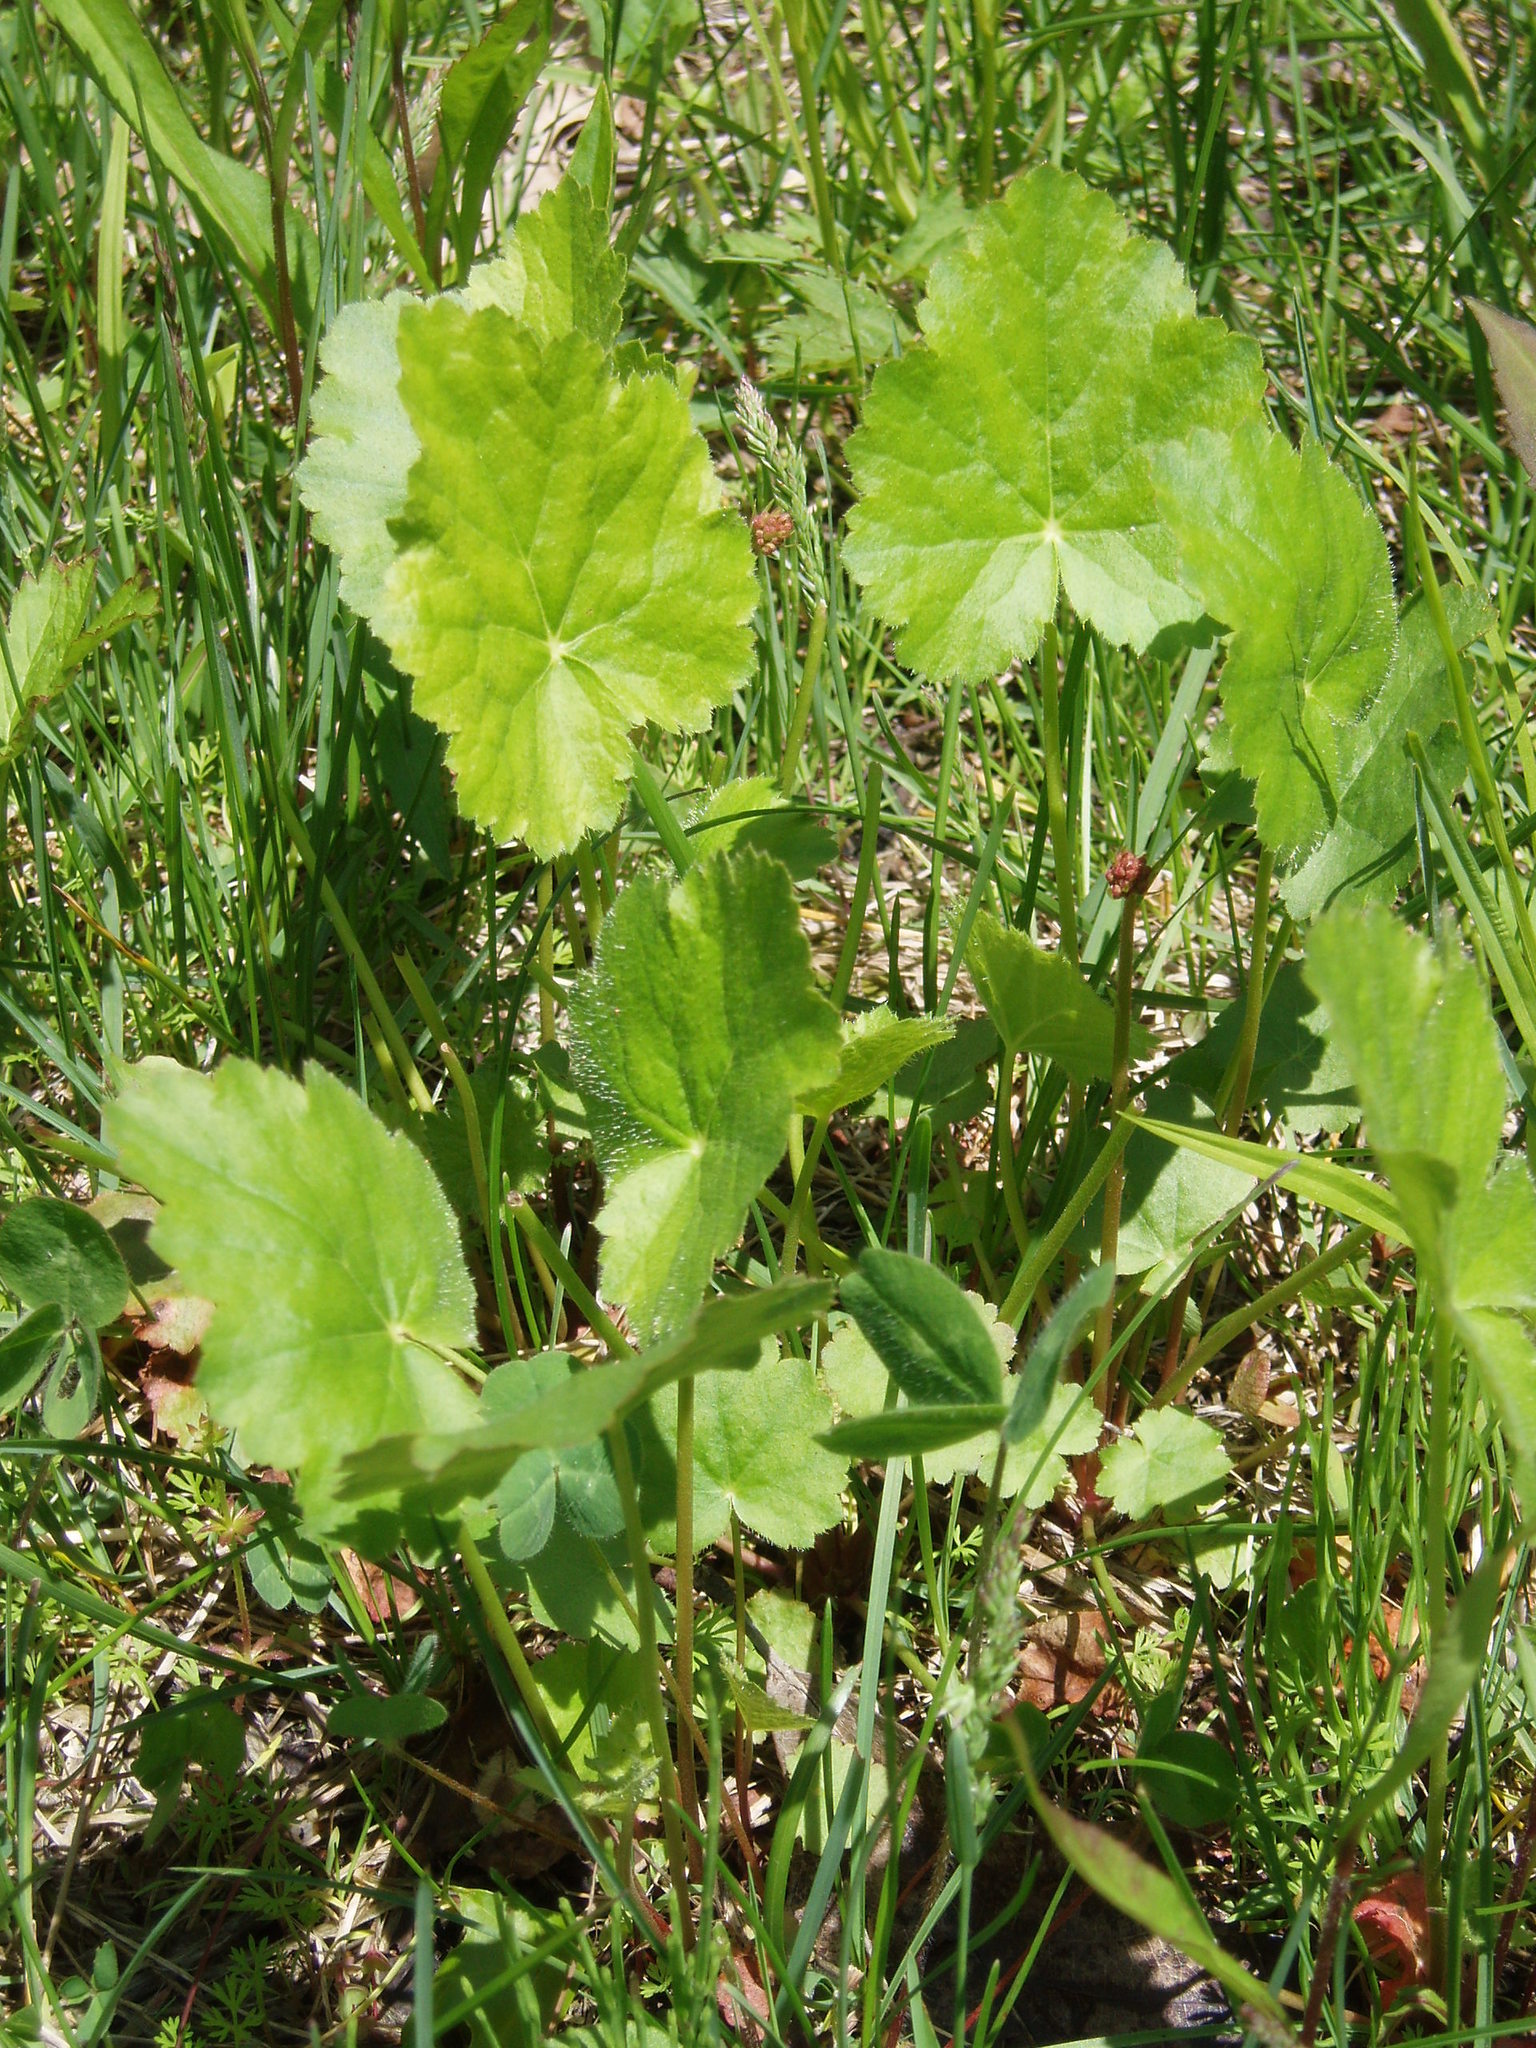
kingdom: Plantae
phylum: Tracheophyta
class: Magnoliopsida
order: Saxifragales
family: Saxifragaceae
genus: Heuchera
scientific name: Heuchera americana
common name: Alumroot
